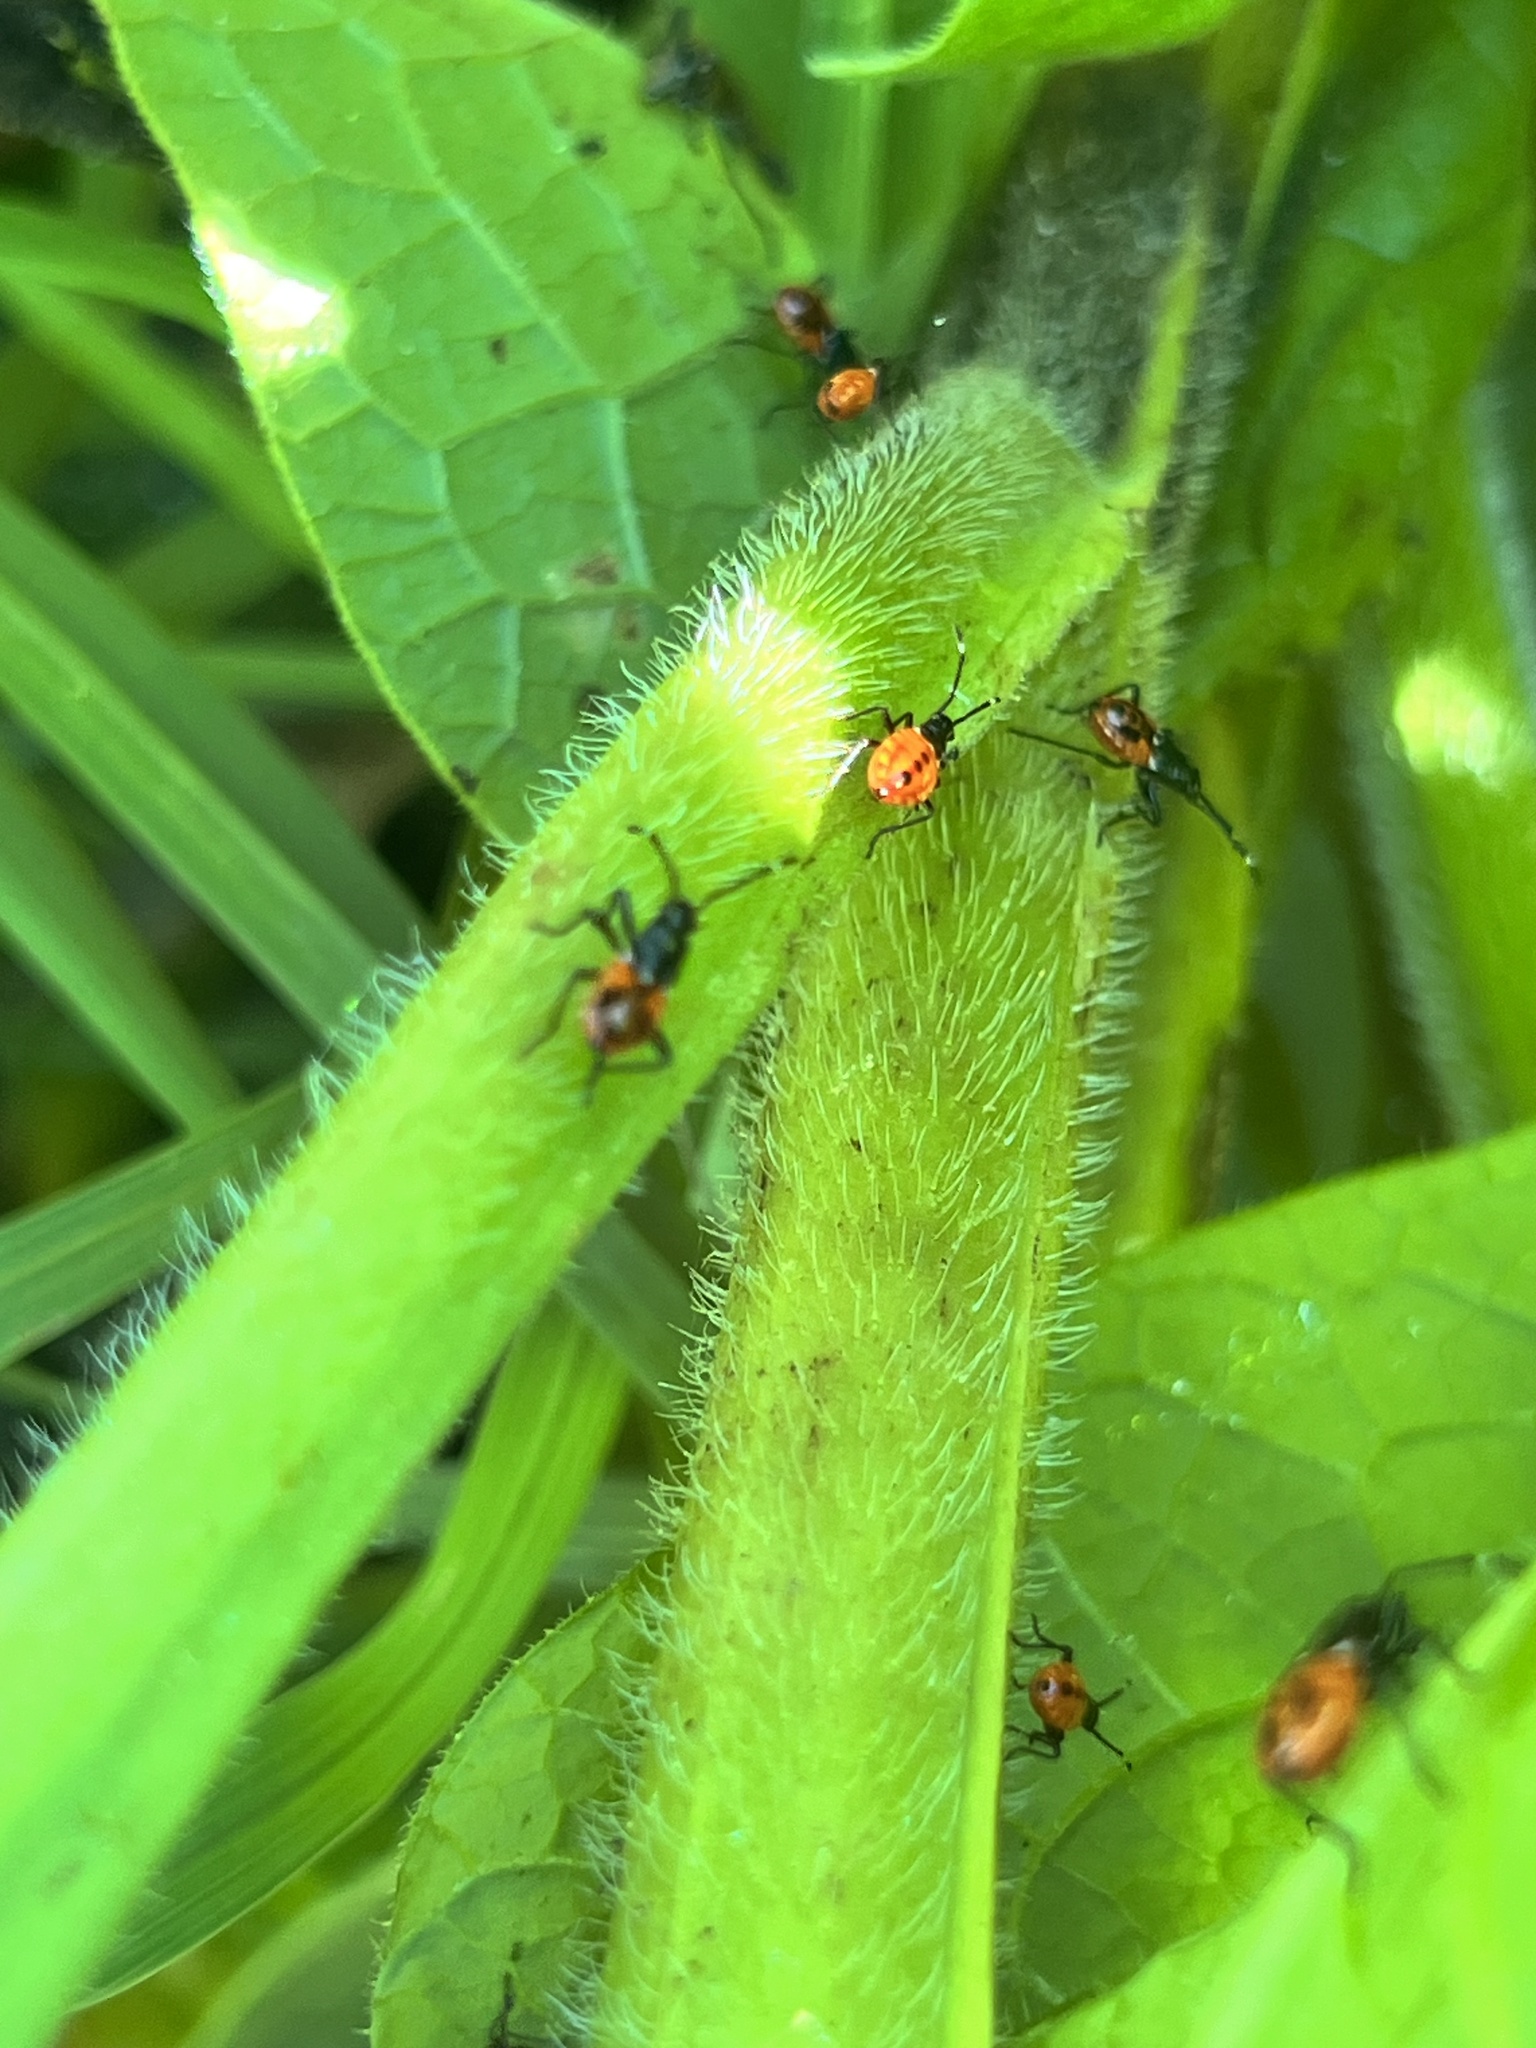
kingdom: Animalia
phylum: Arthropoda
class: Insecta
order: Hemiptera
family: Pyrrhocoridae
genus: Dindymus
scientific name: Dindymus
